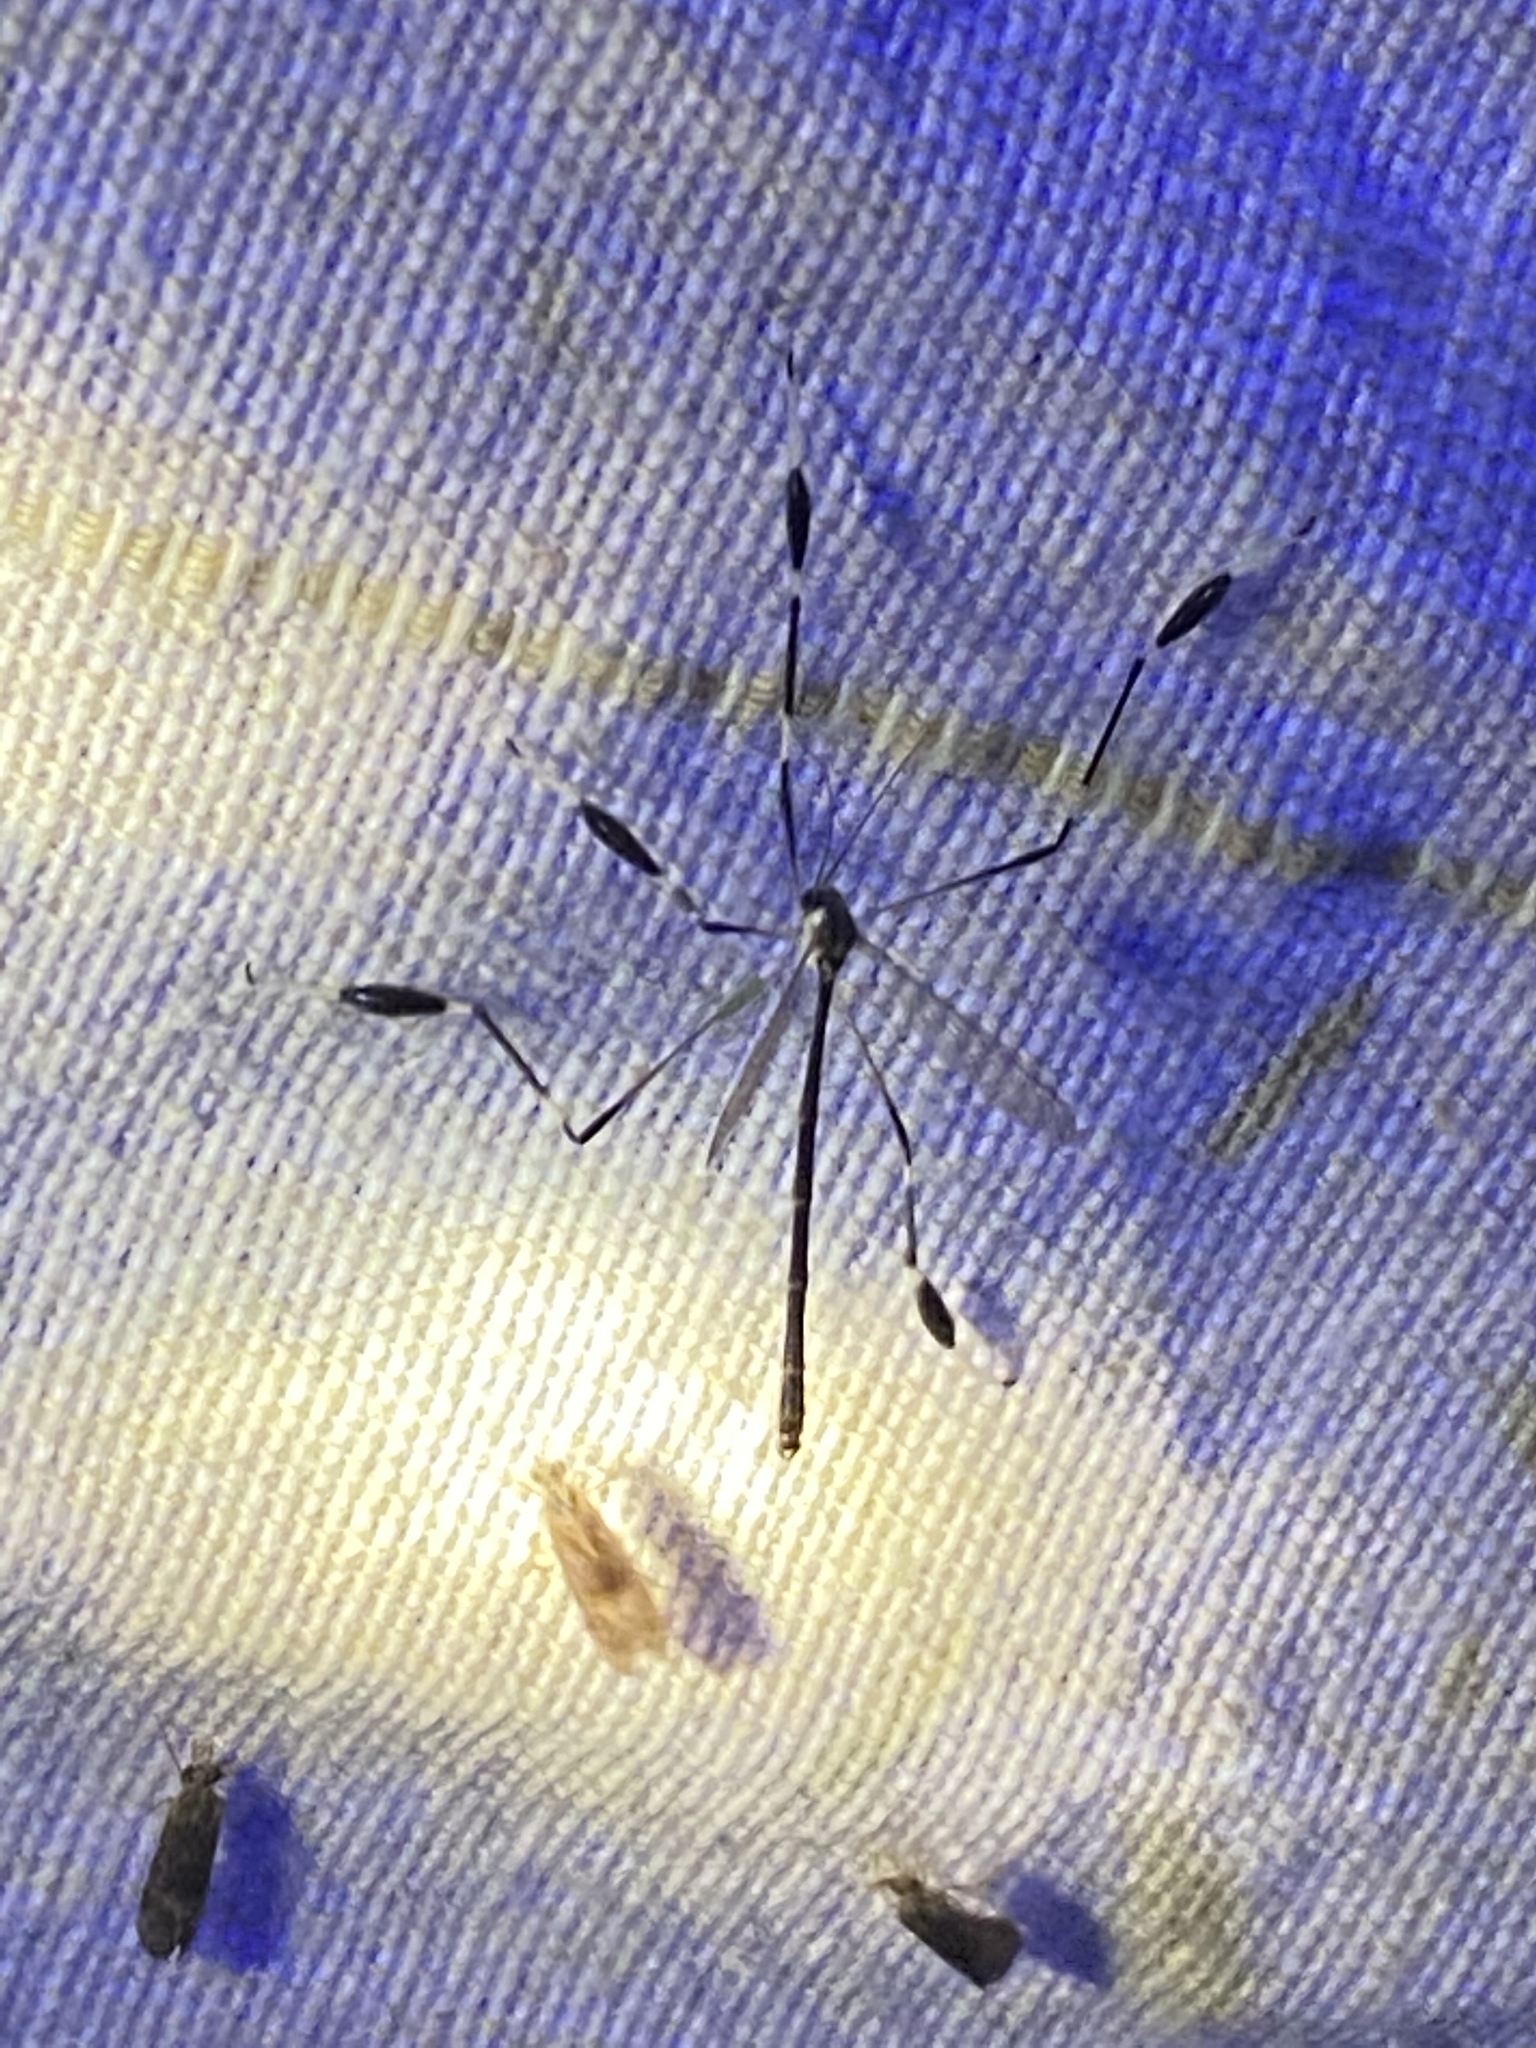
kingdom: Animalia
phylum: Arthropoda
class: Insecta
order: Diptera
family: Ptychopteridae
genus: Bittacomorpha
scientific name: Bittacomorpha clavipes
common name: Eastern phantom crane fly
